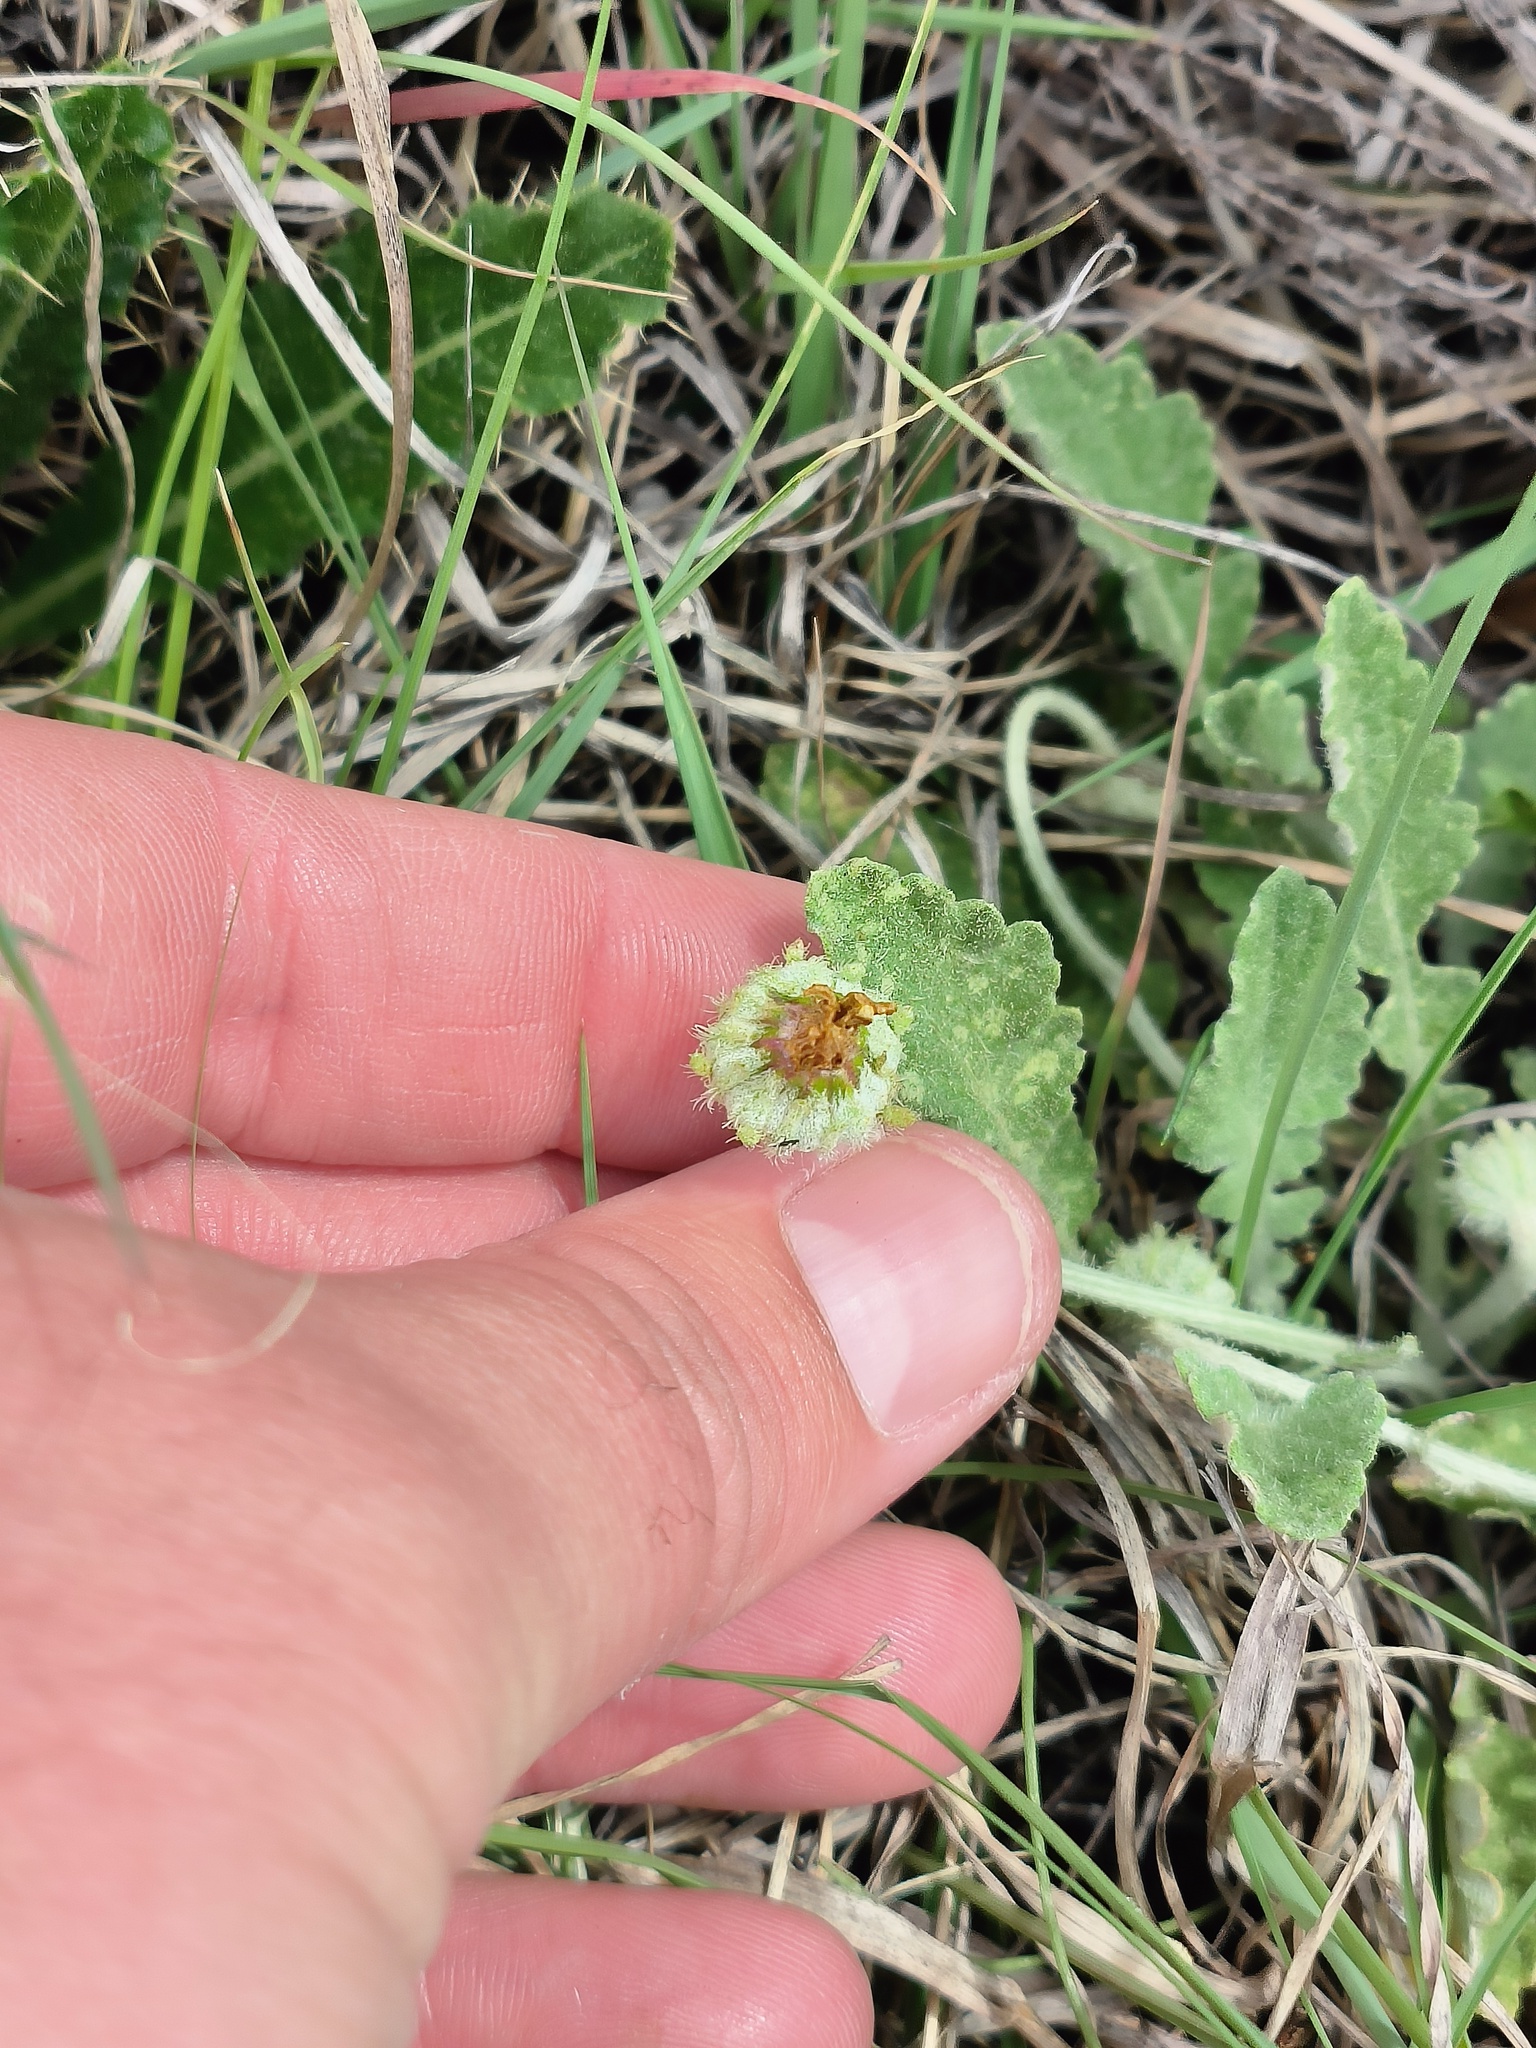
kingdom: Plantae
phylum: Tracheophyta
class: Magnoliopsida
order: Asterales
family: Asteraceae
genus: Arctotis
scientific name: Arctotis arctotoides
